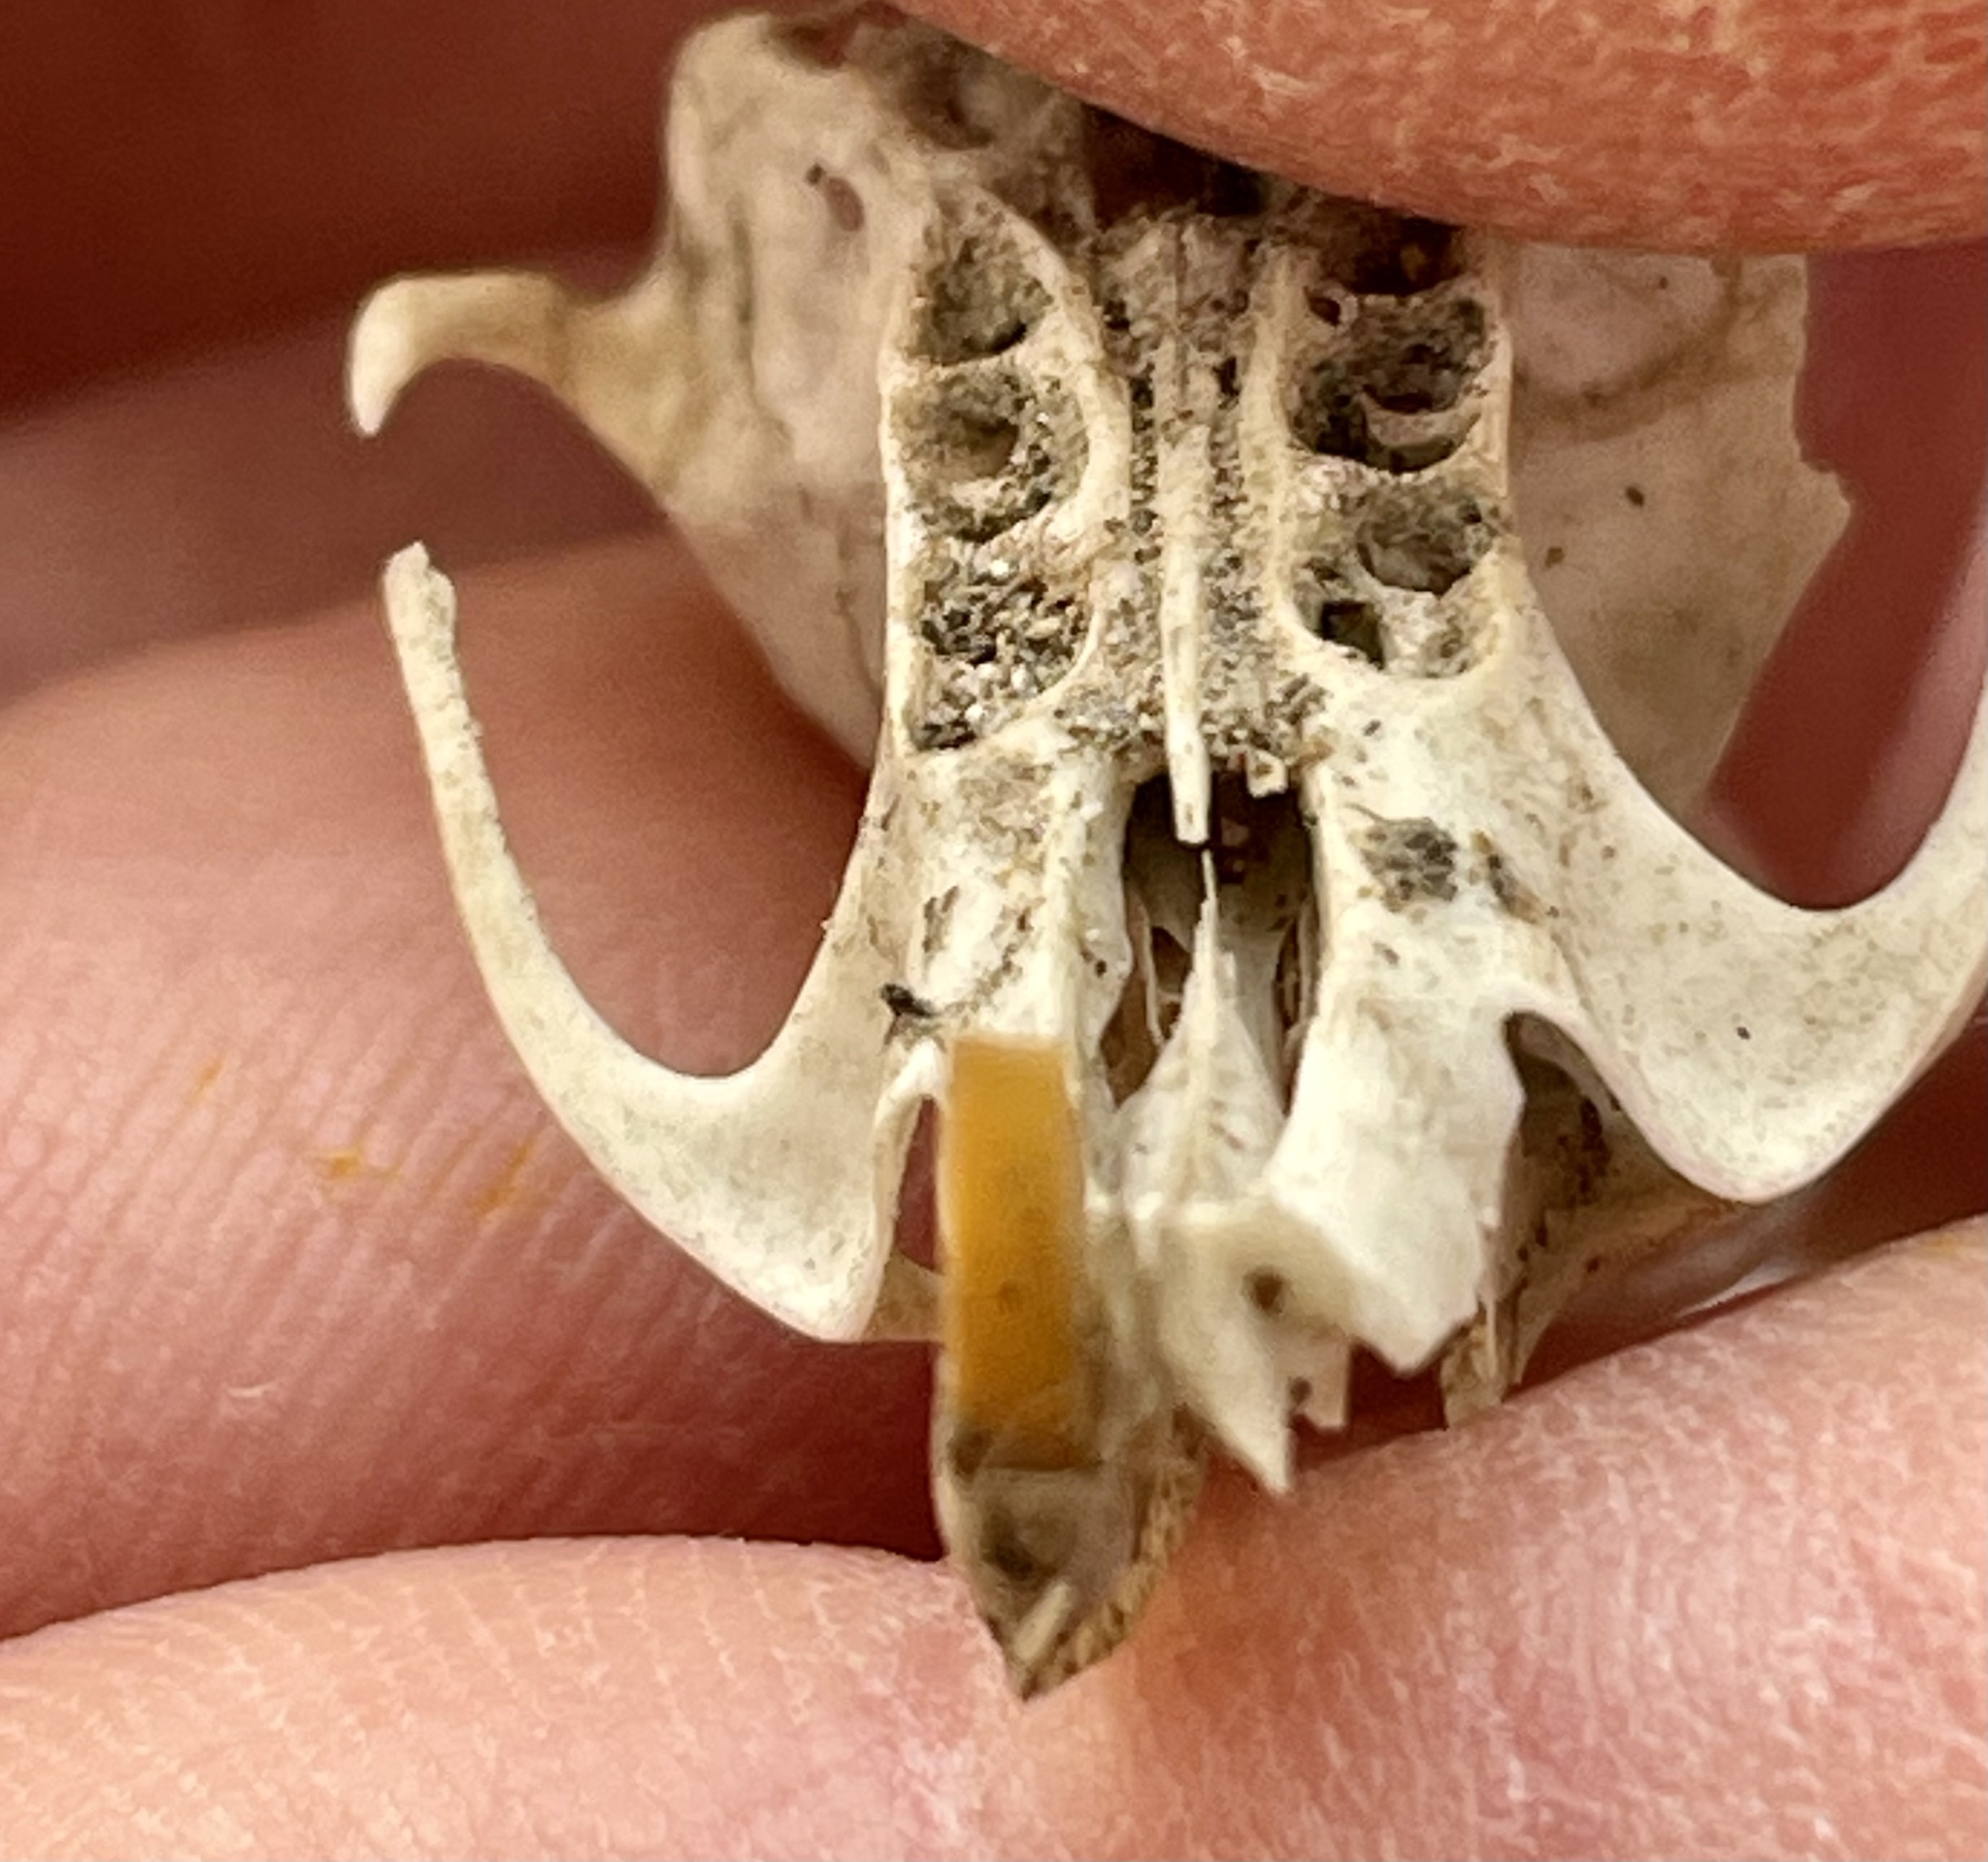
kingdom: Animalia
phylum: Chordata
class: Mammalia
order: Rodentia
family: Cricetidae
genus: Neotoma
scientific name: Neotoma lepida
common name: Desert woodrat
